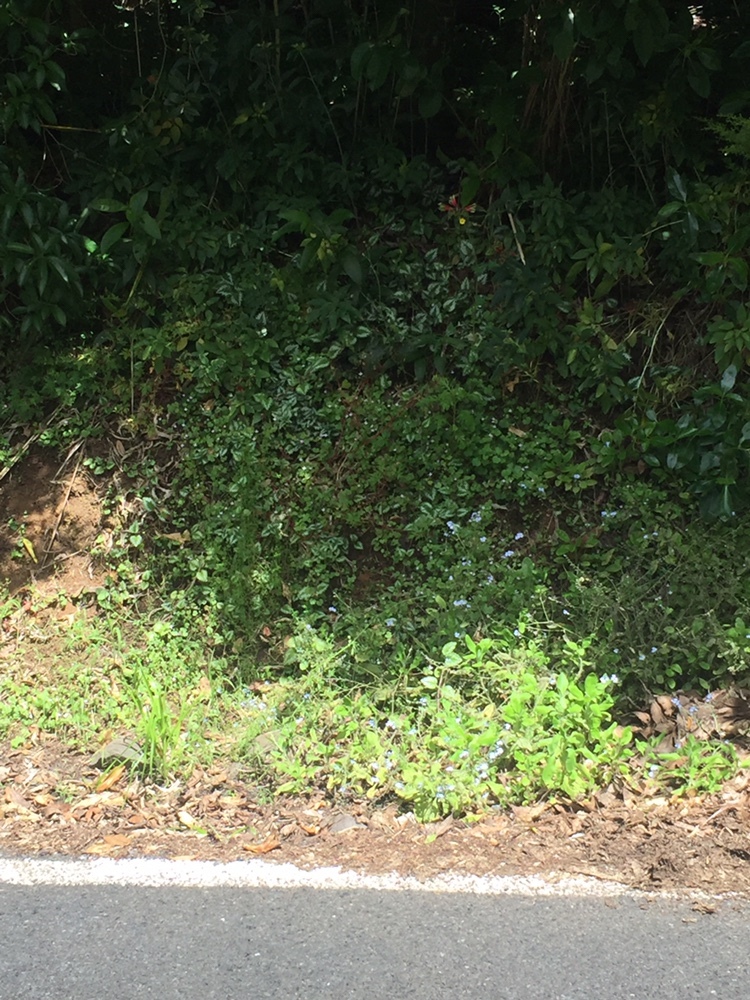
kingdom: Plantae
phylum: Tracheophyta
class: Magnoliopsida
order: Lamiales
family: Lamiaceae
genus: Lamium
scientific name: Lamium galeobdolon
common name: Yellow archangel
